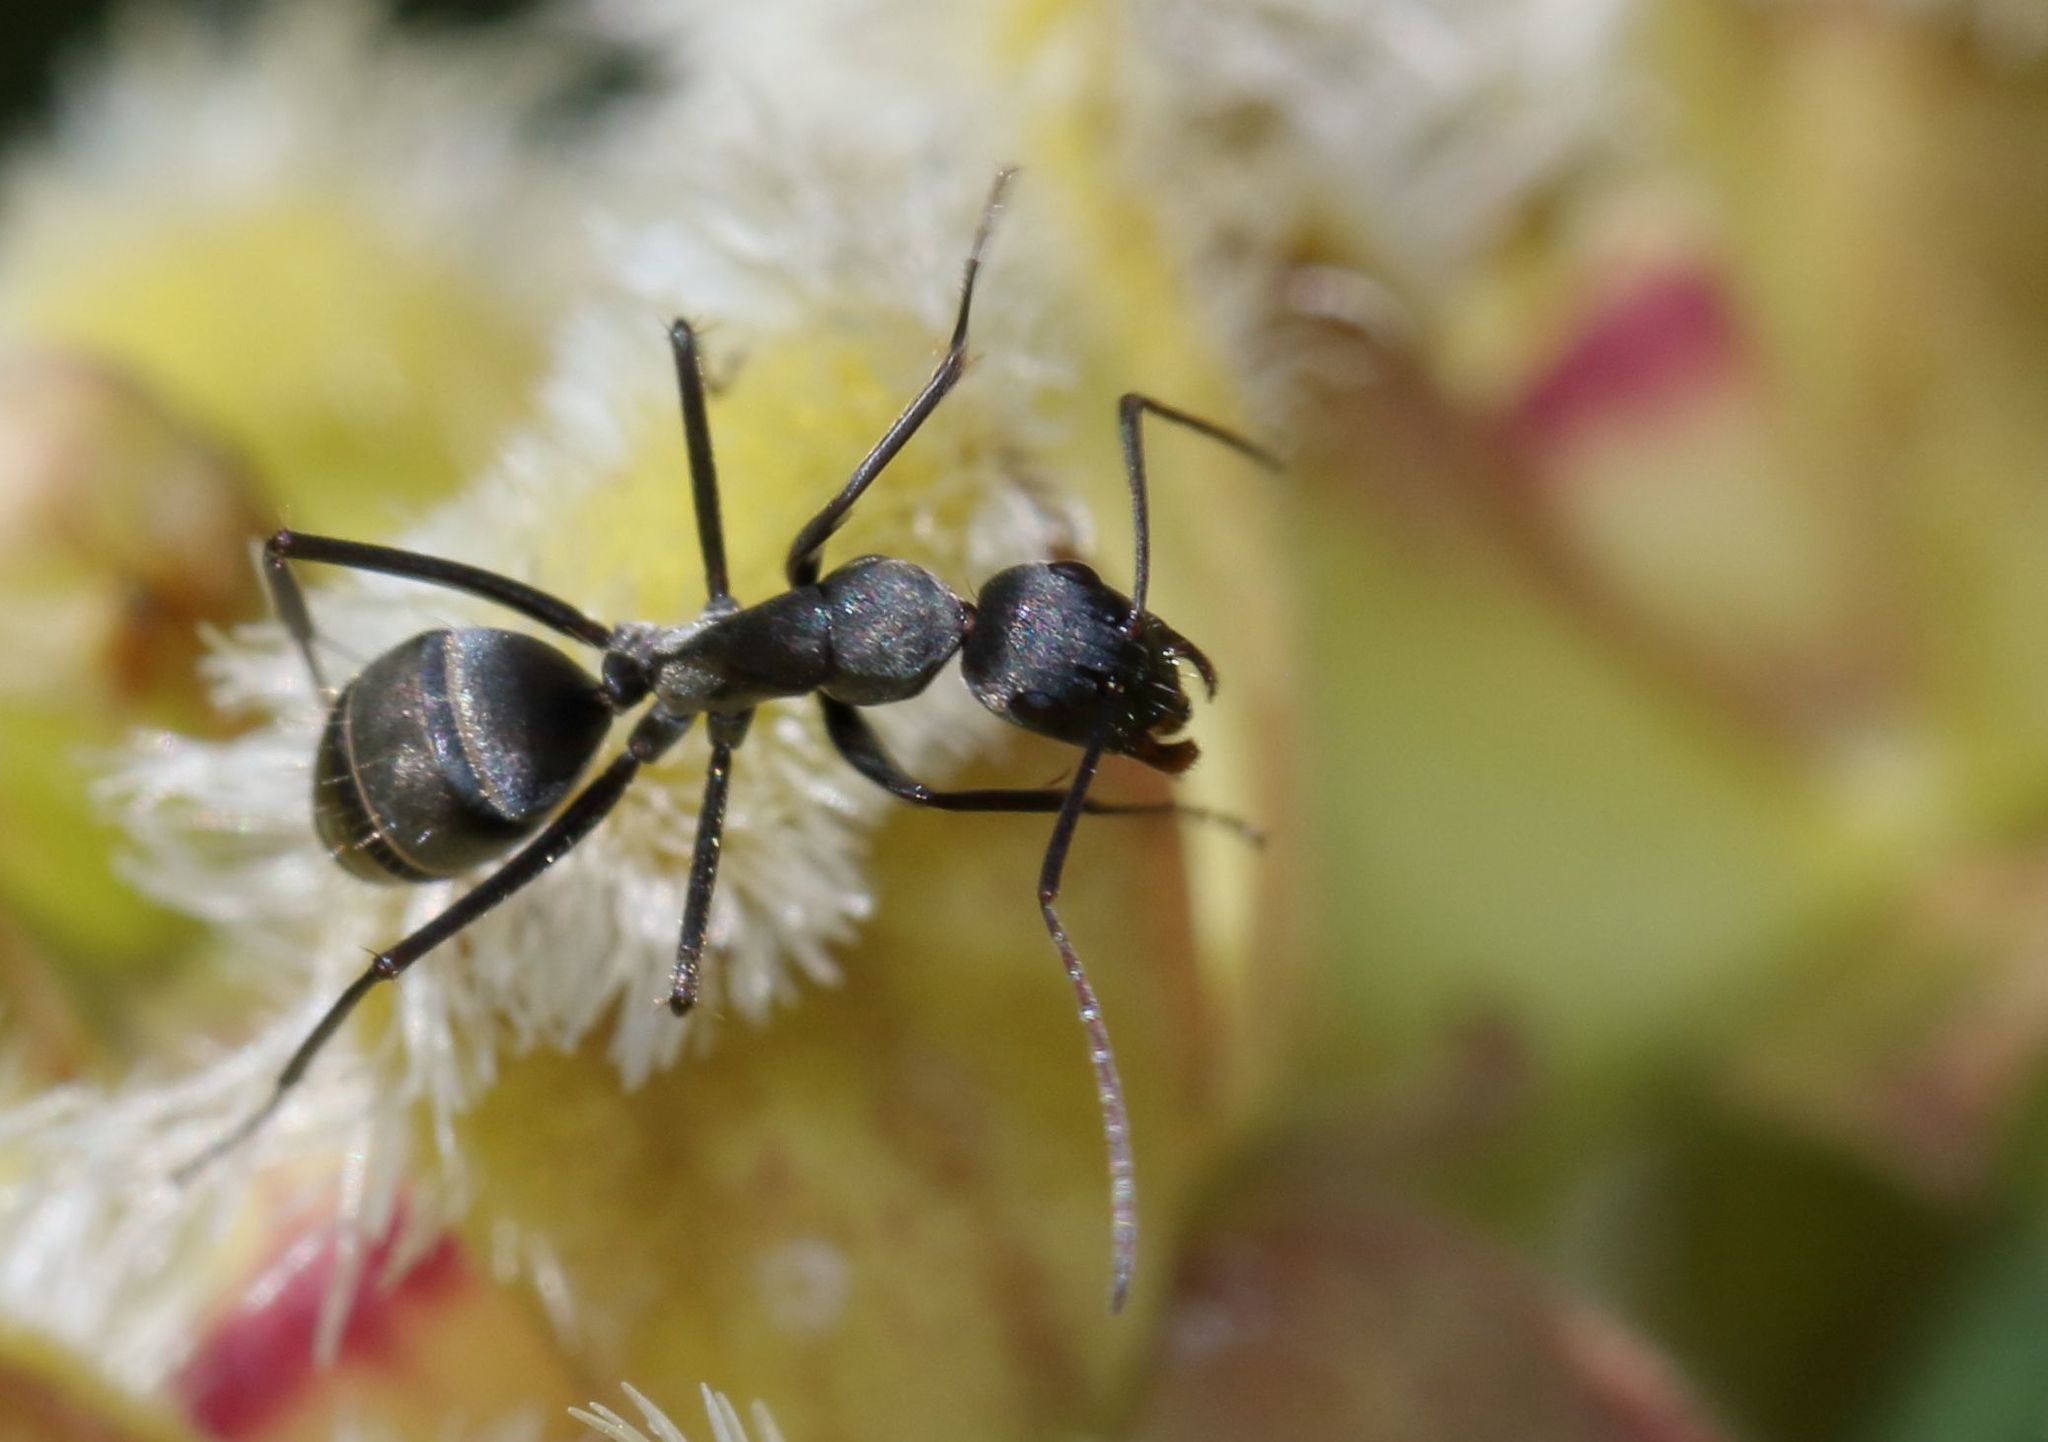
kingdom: Animalia
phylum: Arthropoda
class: Insecta
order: Hymenoptera
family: Formicidae
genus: Camponotus
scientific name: Camponotus cinctellus
